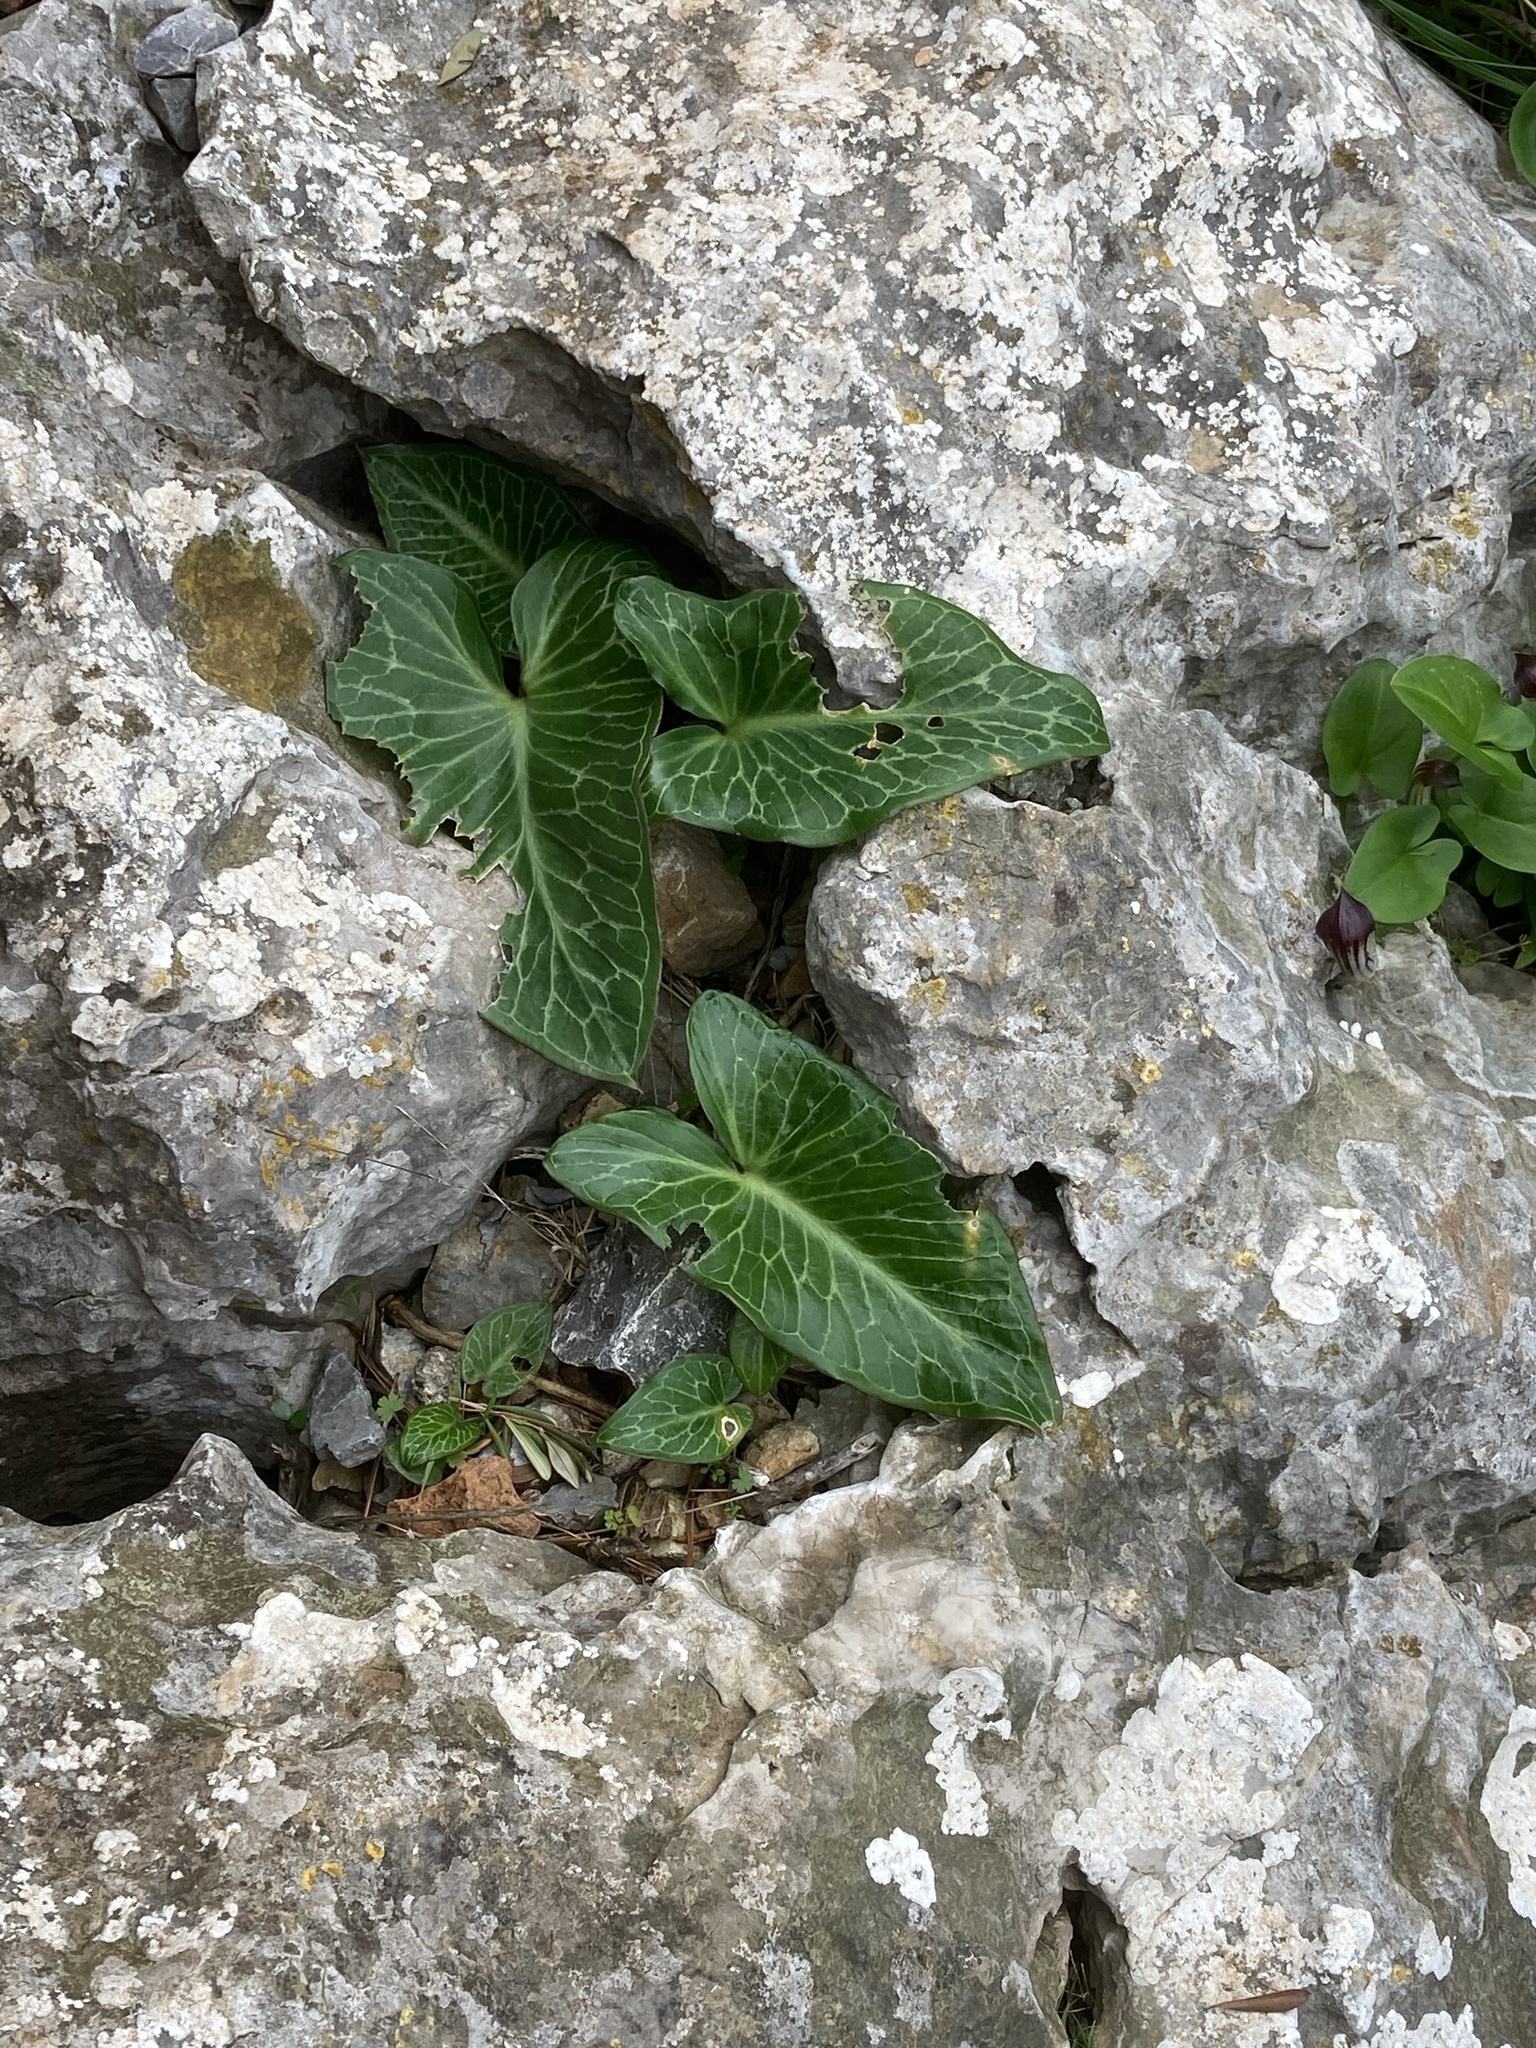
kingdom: Plantae
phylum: Tracheophyta
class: Liliopsida
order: Alismatales
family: Araceae
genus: Arum
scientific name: Arum pictum
